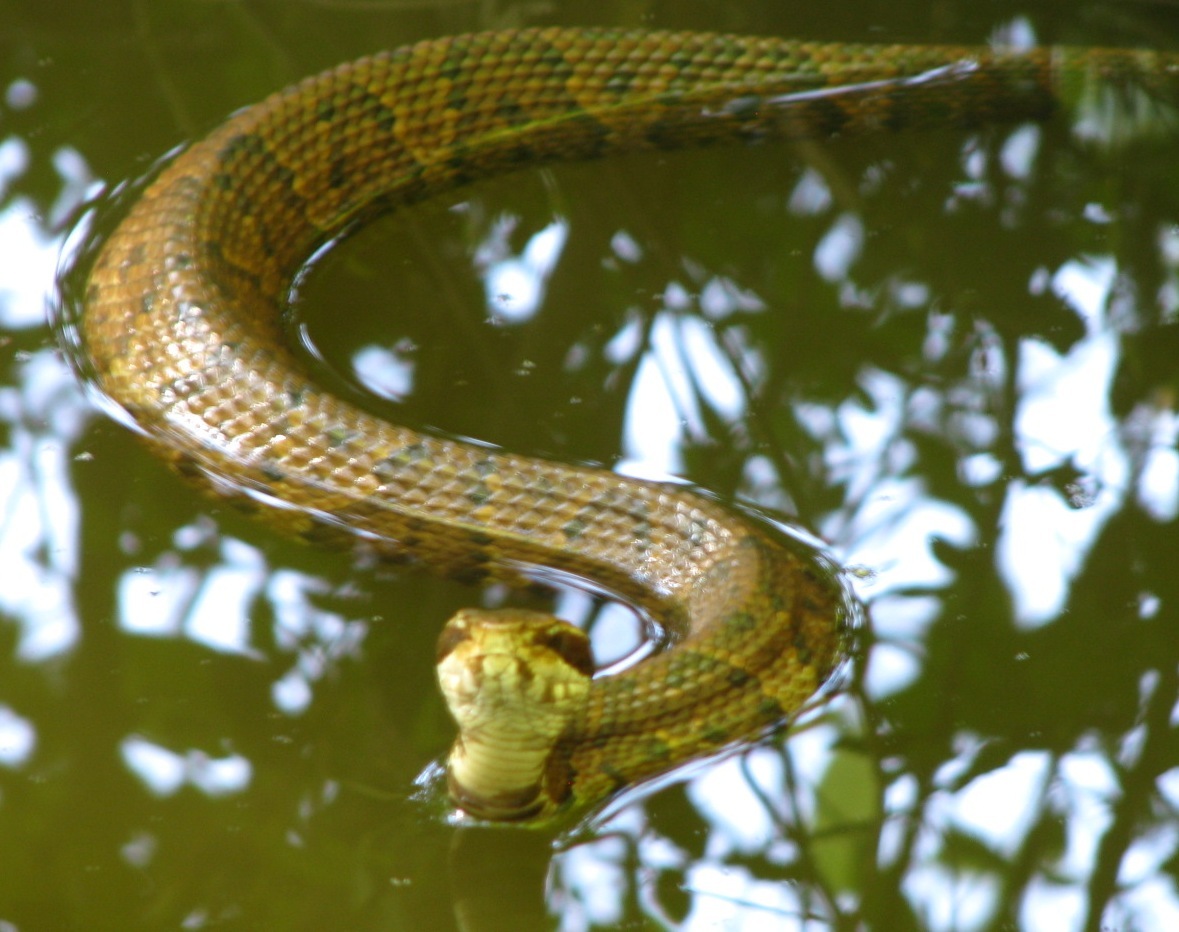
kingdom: Animalia
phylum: Chordata
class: Squamata
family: Viperidae
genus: Agkistrodon
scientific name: Agkistrodon piscivorus
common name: Cottonmouth
